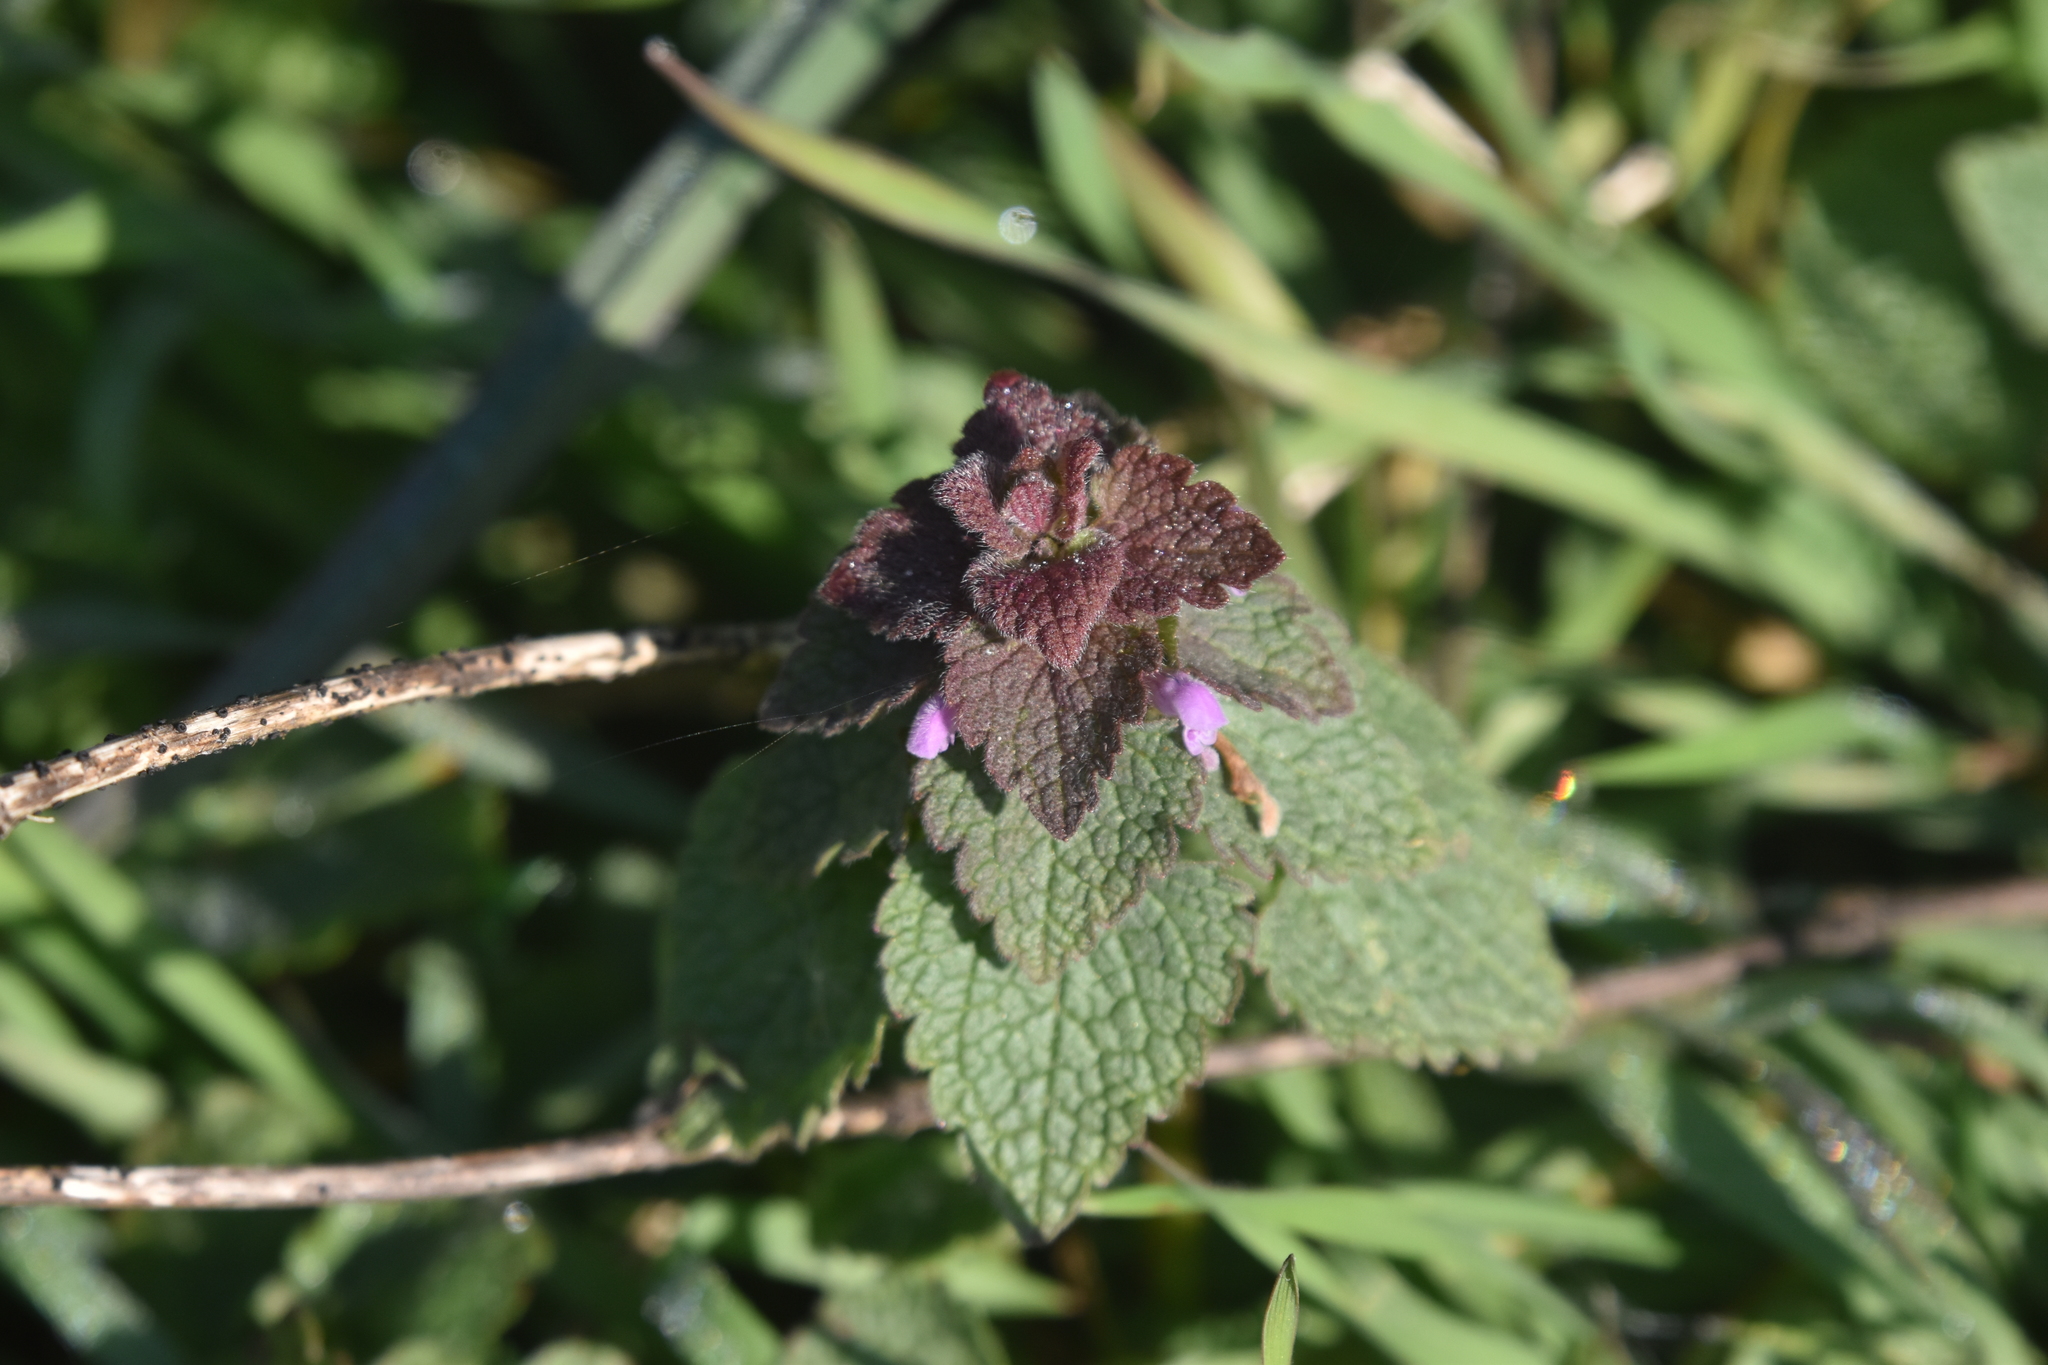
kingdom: Plantae
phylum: Tracheophyta
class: Magnoliopsida
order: Lamiales
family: Lamiaceae
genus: Lamium
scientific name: Lamium purpureum
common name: Red dead-nettle
